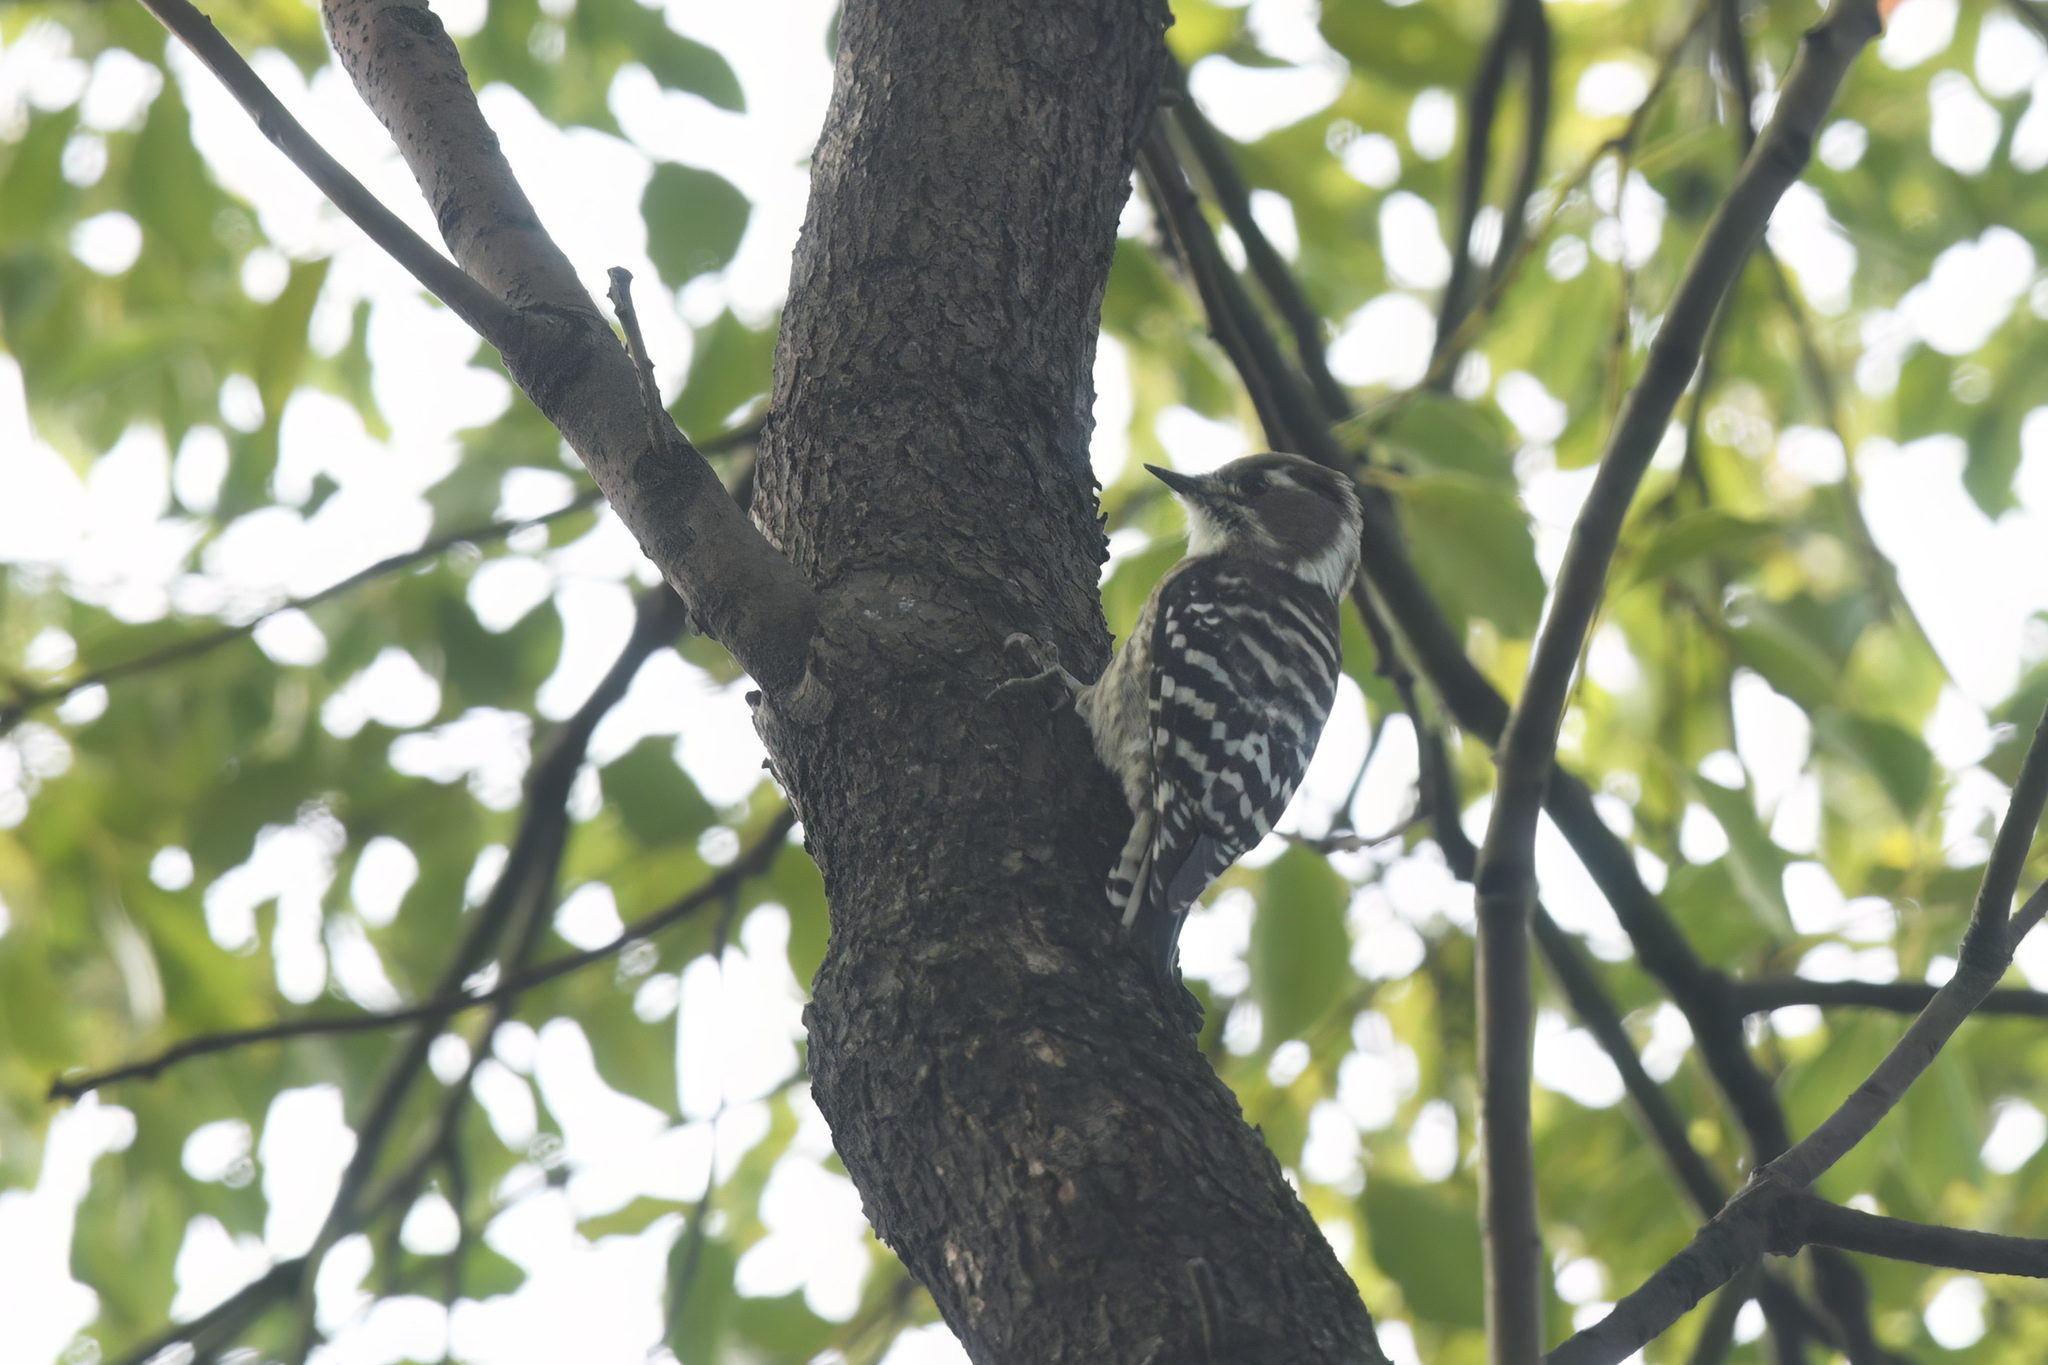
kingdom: Animalia
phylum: Chordata
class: Aves
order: Piciformes
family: Picidae
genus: Yungipicus
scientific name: Yungipicus kizuki
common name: Japanese pygmy woodpecker
